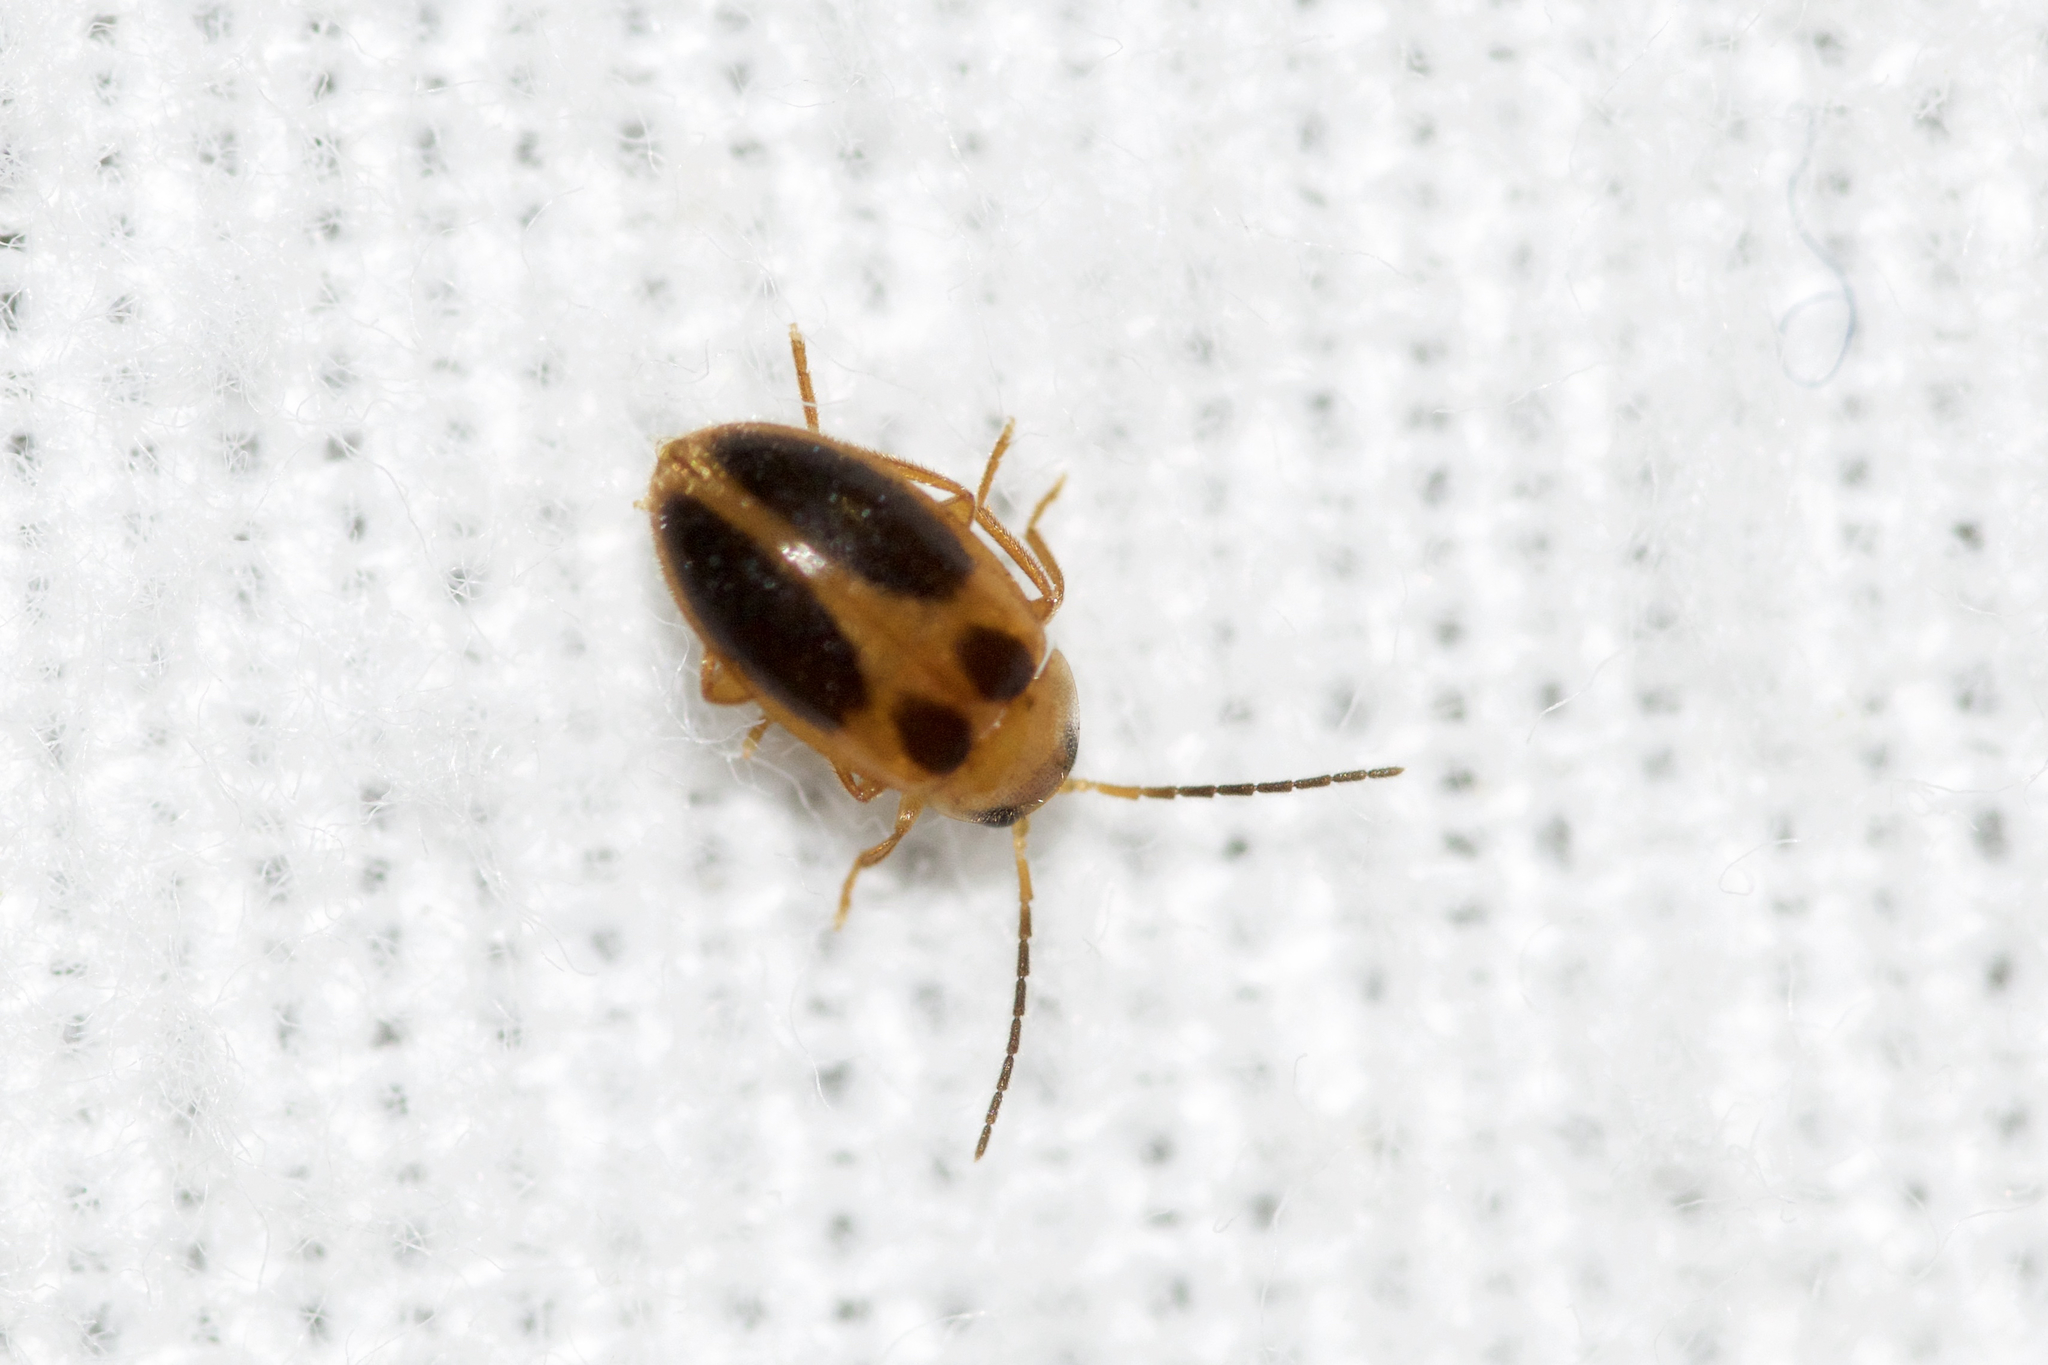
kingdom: Animalia
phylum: Arthropoda
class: Insecta
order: Coleoptera
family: Scirtidae
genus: Sacodes
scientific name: Sacodes pulchella
